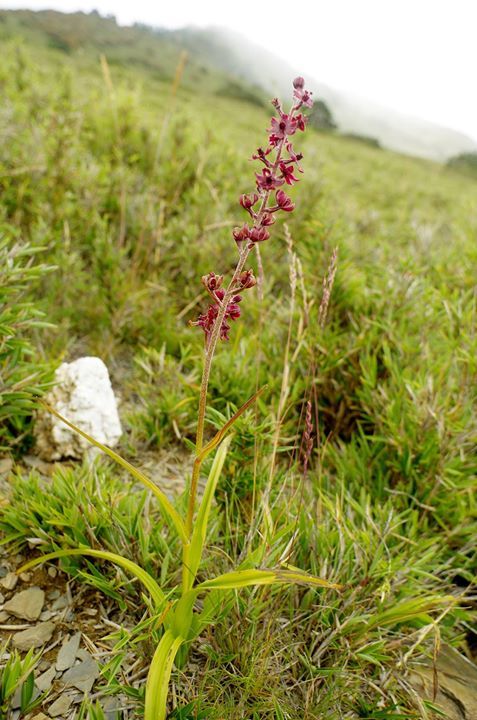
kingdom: Plantae
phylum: Tracheophyta
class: Liliopsida
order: Liliales
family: Melanthiaceae
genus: Veratrum
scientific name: Veratrum formosanum
